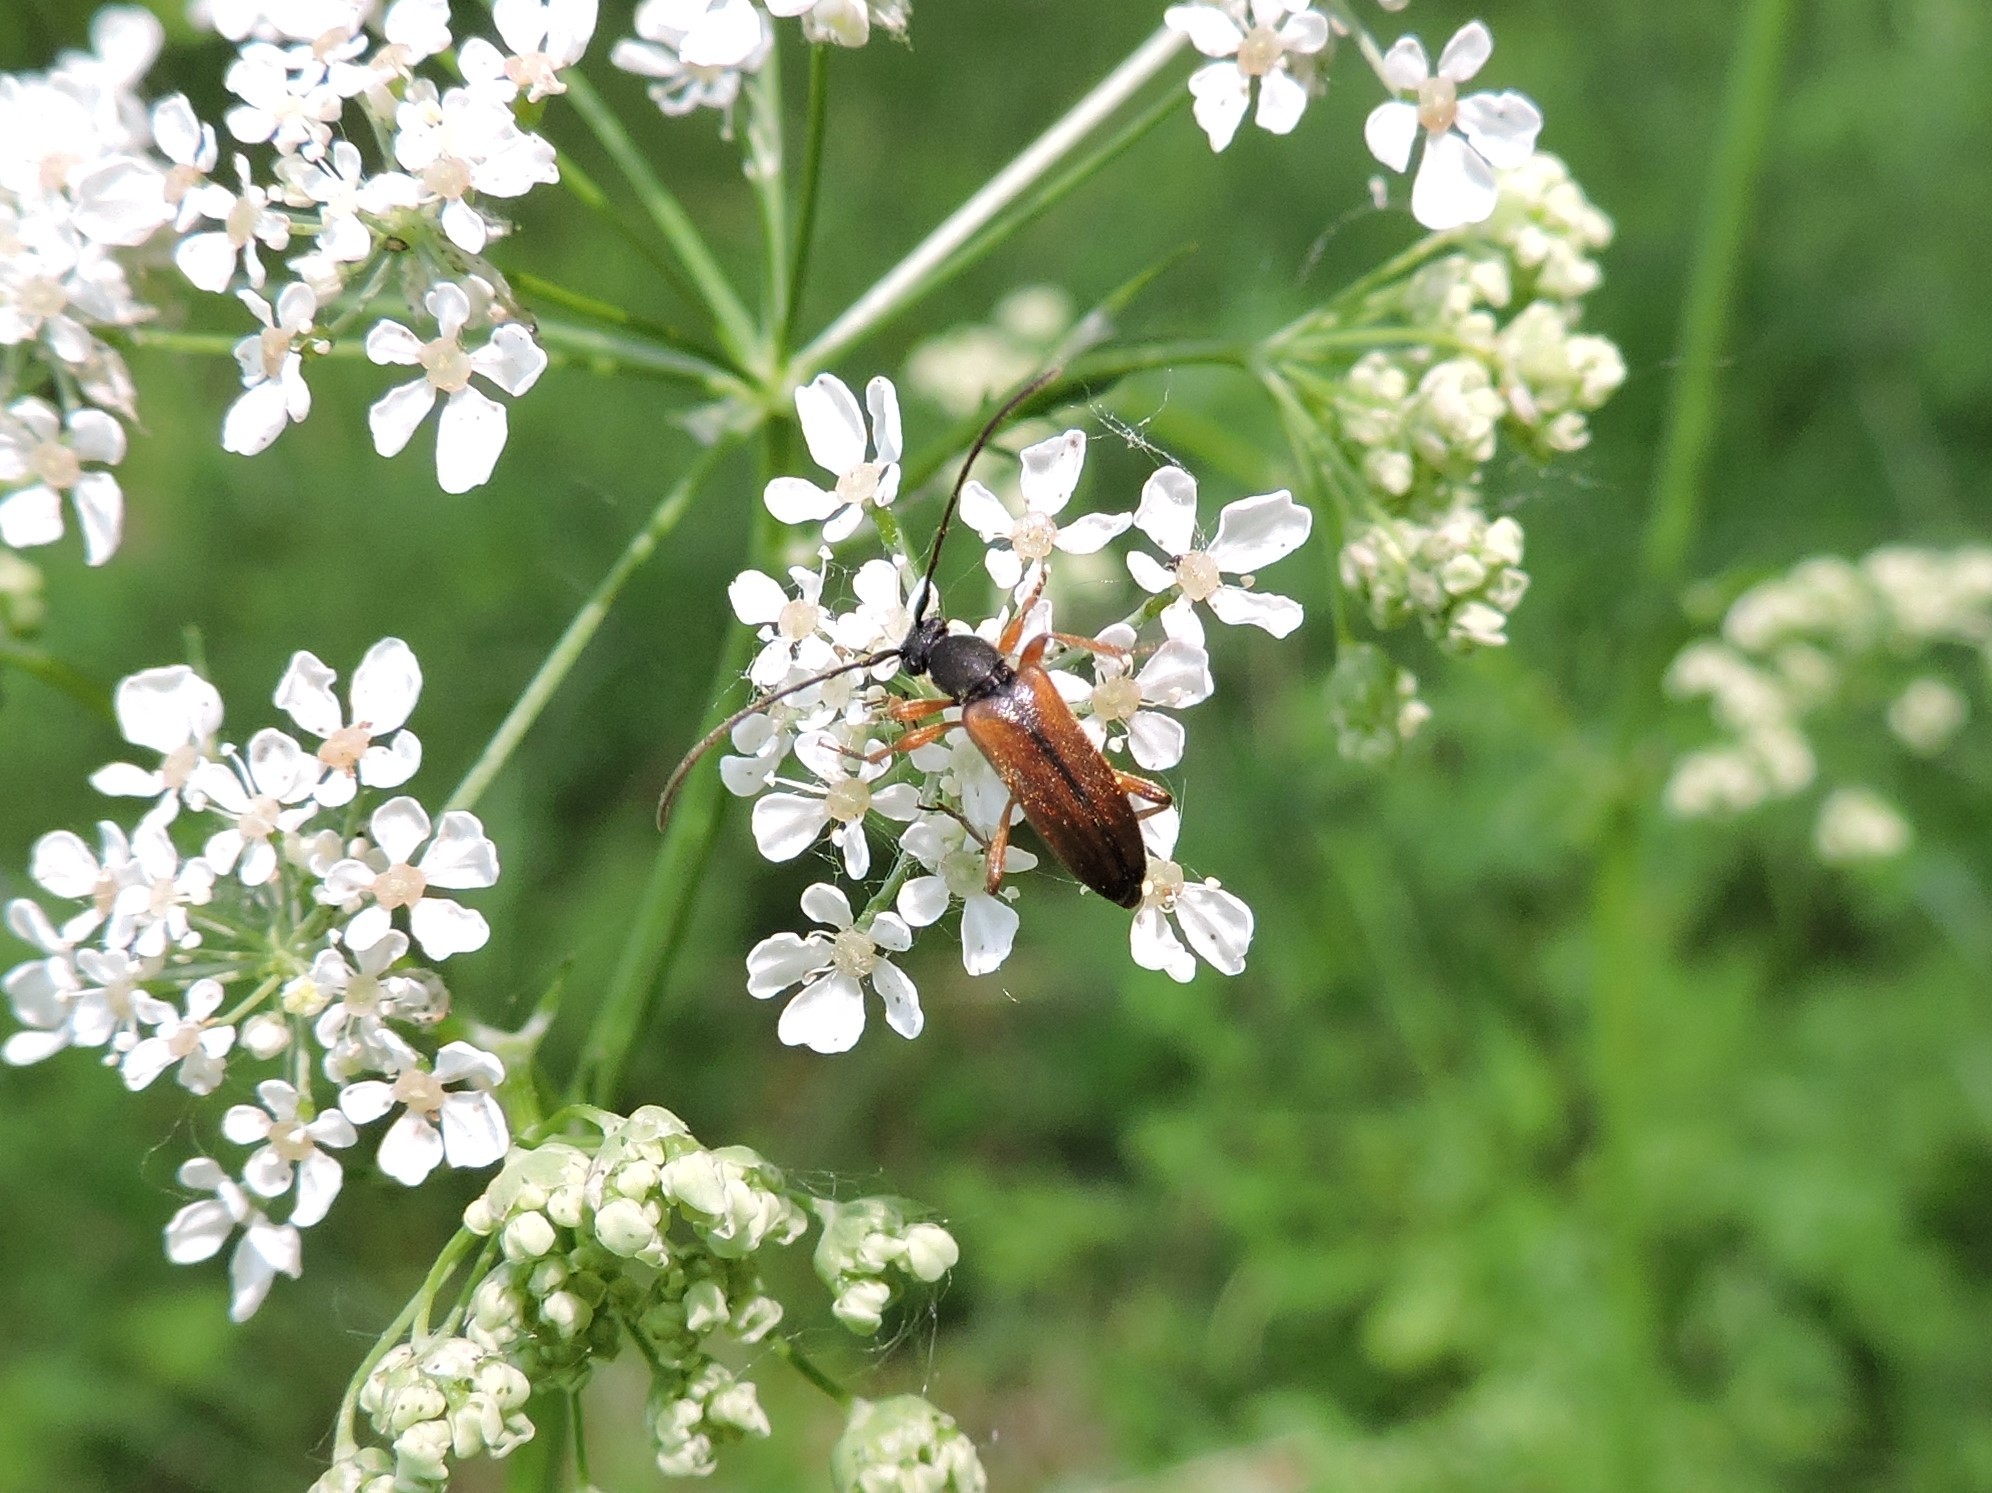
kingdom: Animalia
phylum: Arthropoda
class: Insecta
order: Coleoptera
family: Cerambycidae
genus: Alosterna
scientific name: Alosterna tabacicolor
